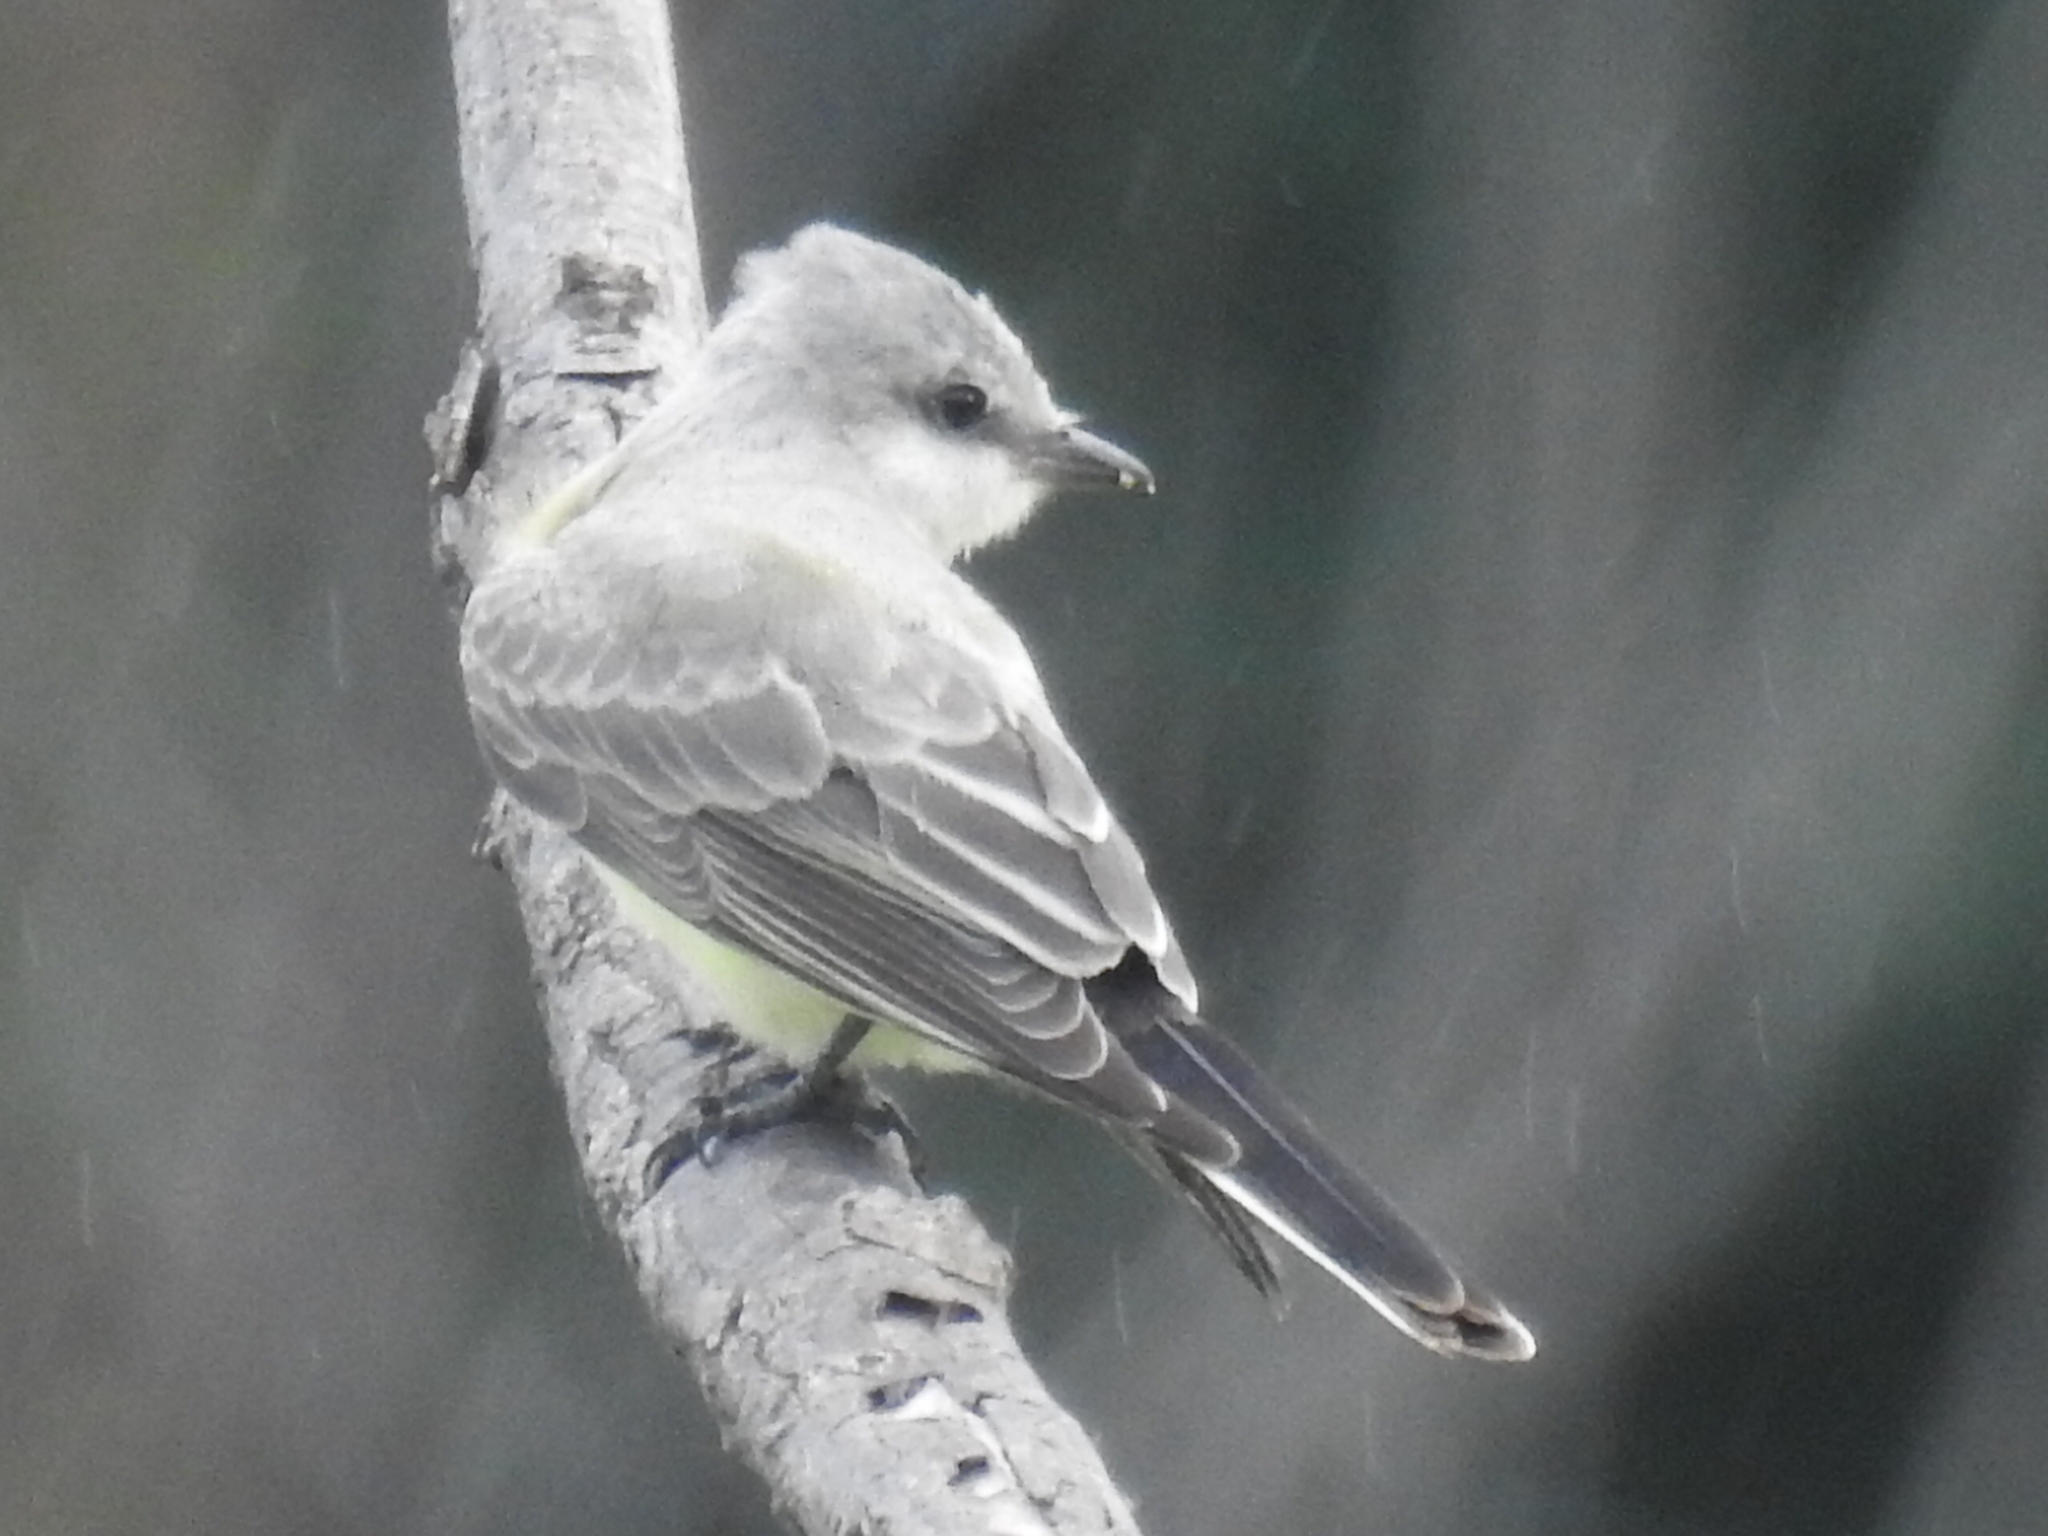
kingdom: Animalia
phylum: Chordata
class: Aves
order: Passeriformes
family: Tyrannidae
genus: Tyrannus
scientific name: Tyrannus verticalis
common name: Western kingbird
